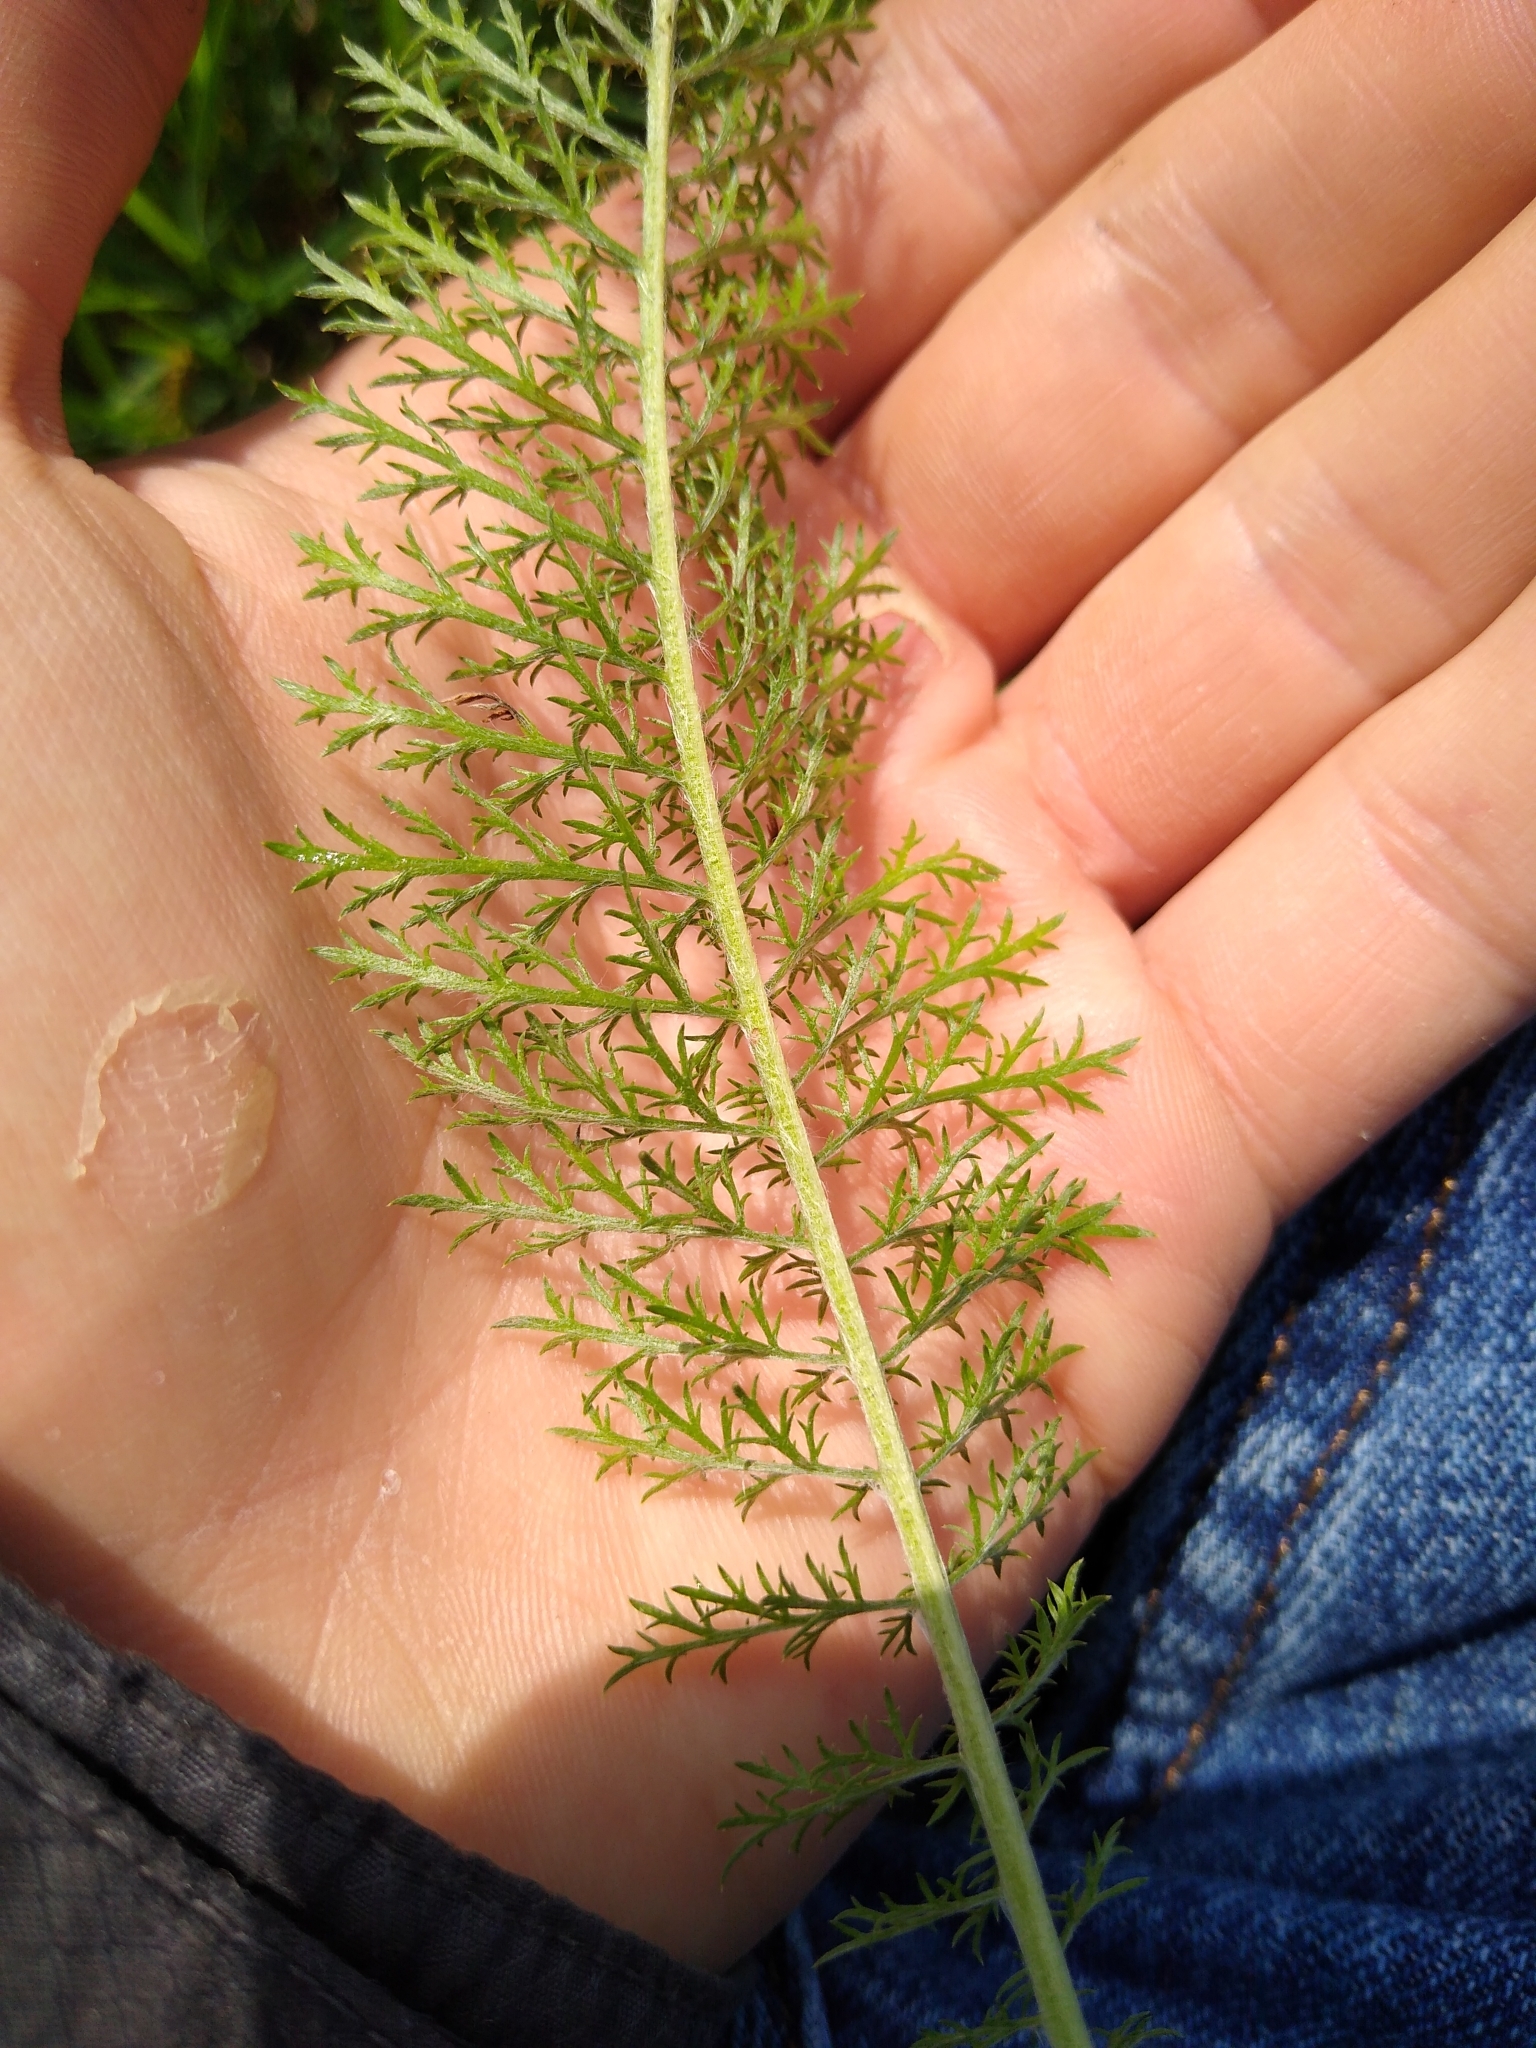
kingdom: Plantae
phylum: Tracheophyta
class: Magnoliopsida
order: Asterales
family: Asteraceae
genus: Achillea
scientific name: Achillea millefolium
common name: Yarrow
